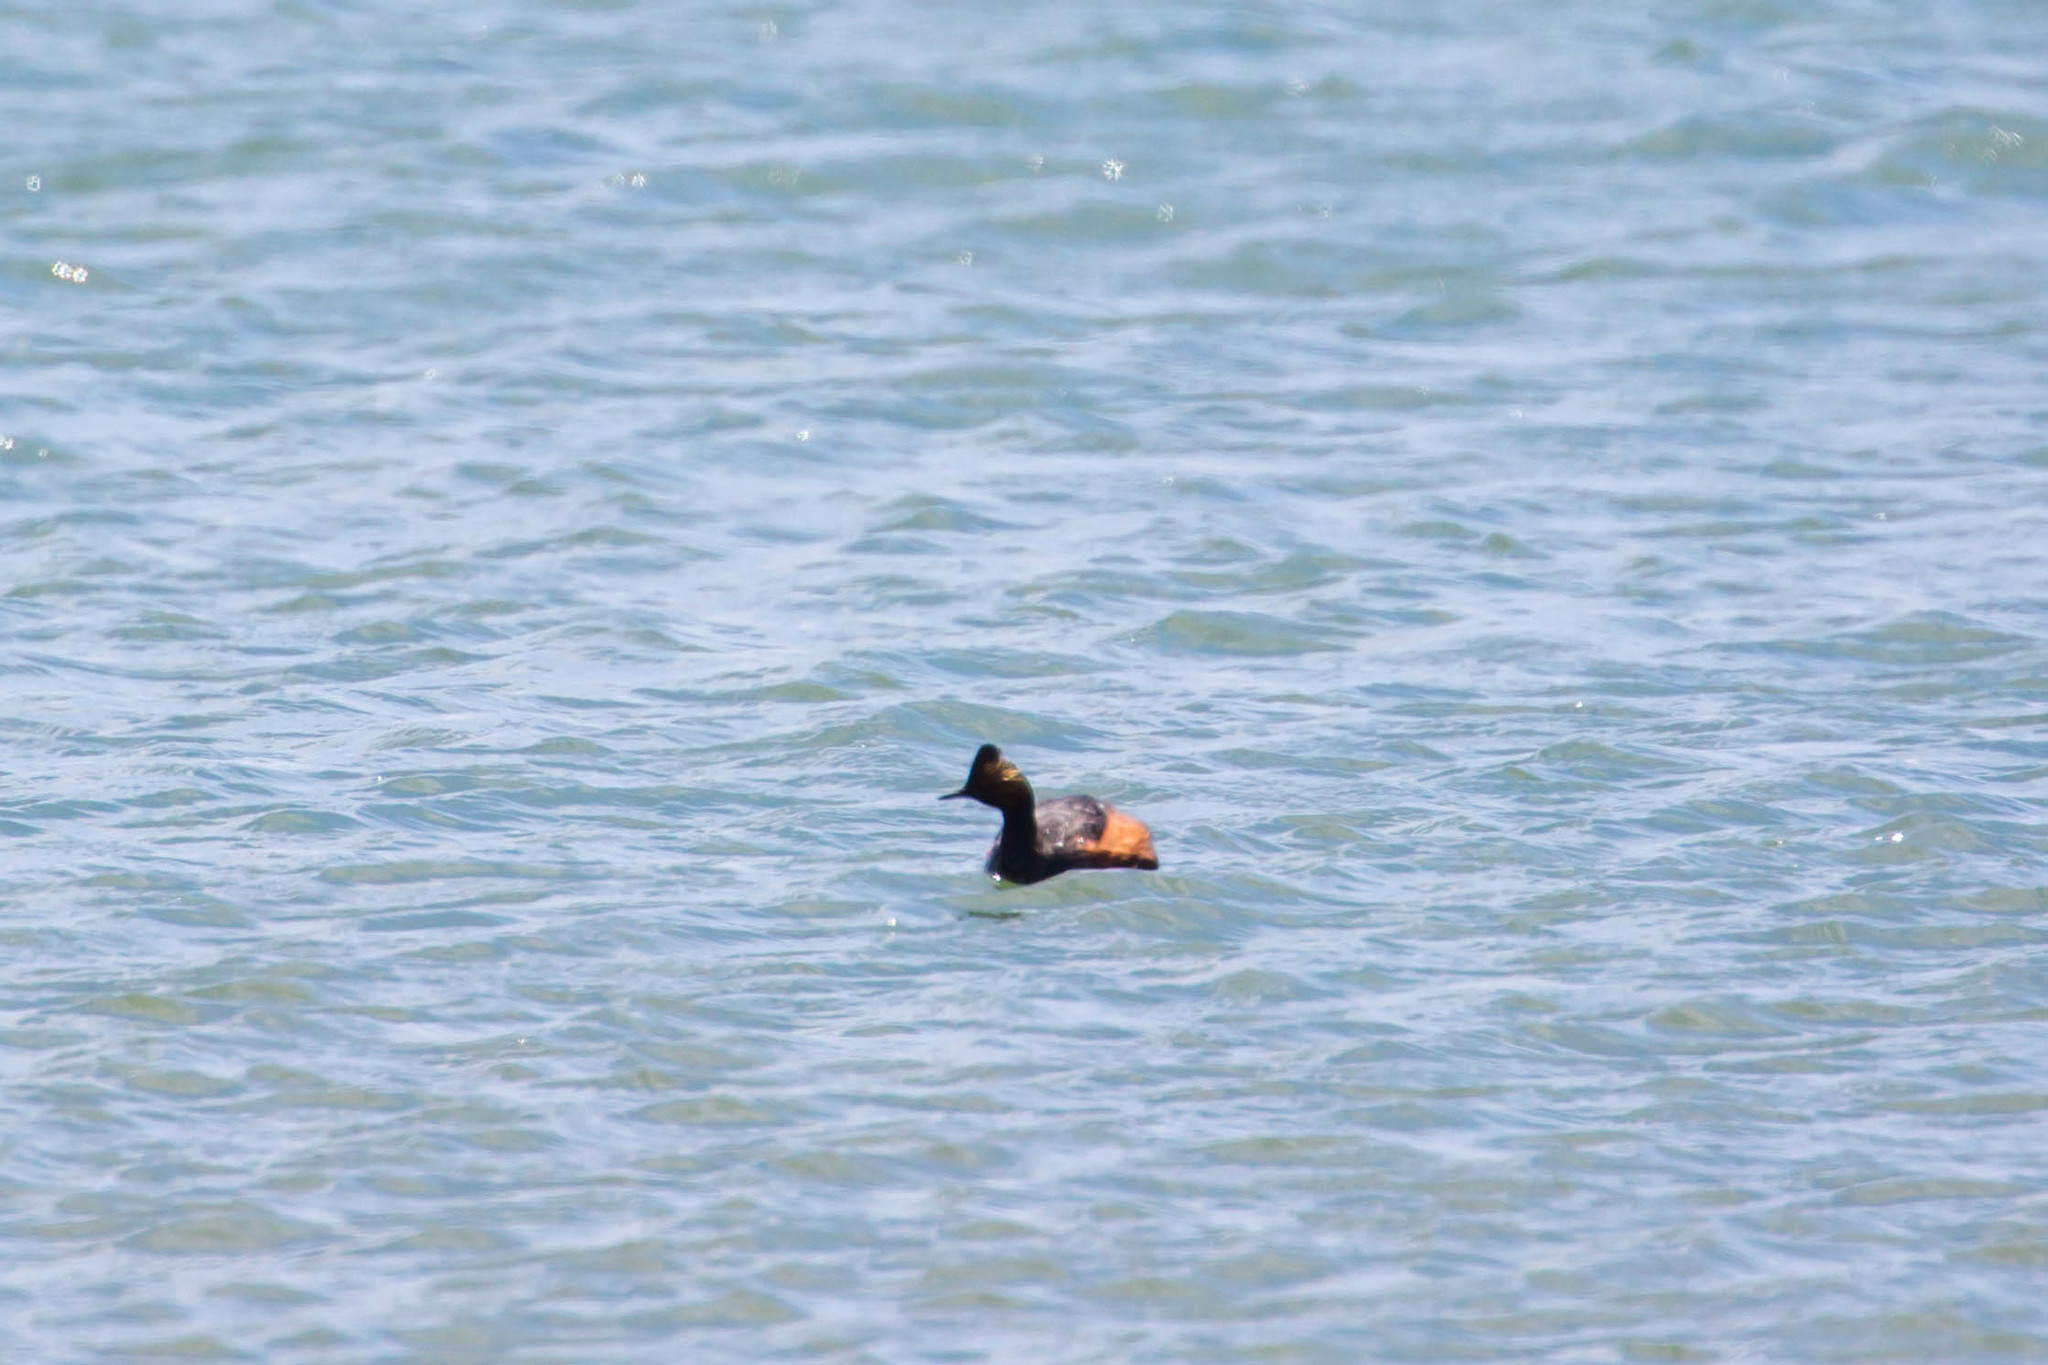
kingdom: Animalia
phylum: Chordata
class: Aves
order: Podicipediformes
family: Podicipedidae
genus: Podiceps
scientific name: Podiceps nigricollis
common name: Black-necked grebe
